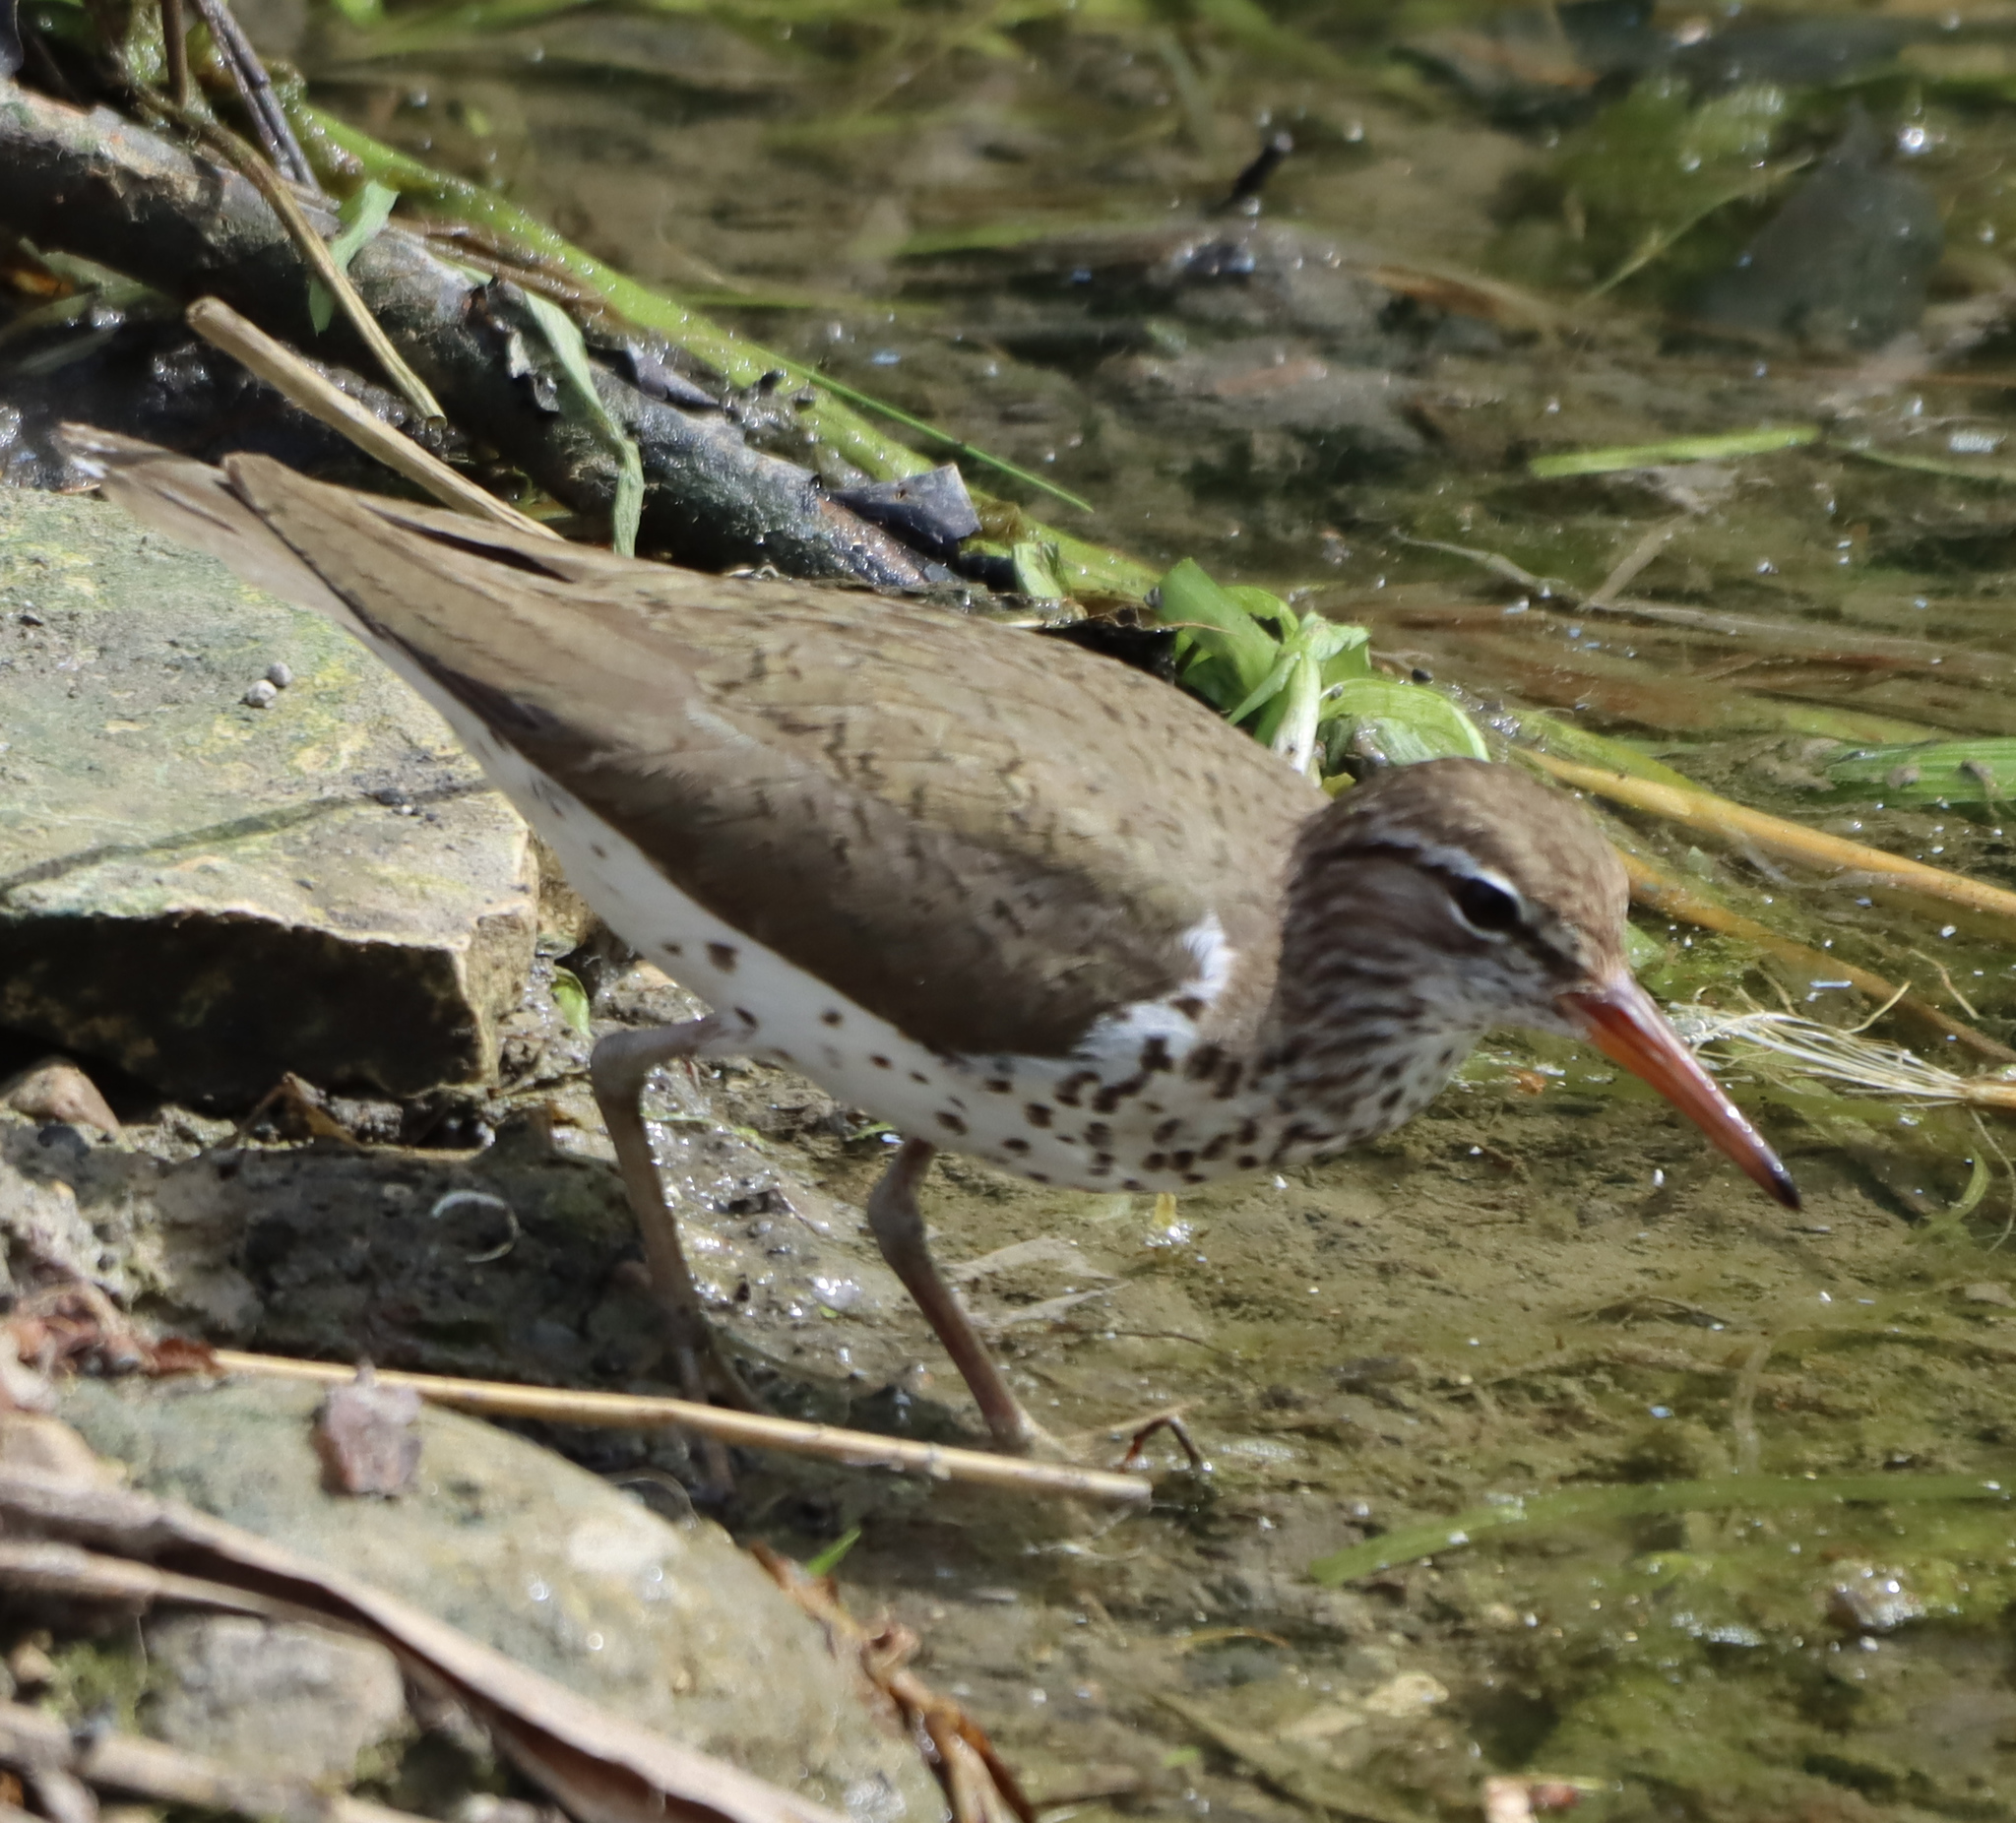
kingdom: Animalia
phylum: Chordata
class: Aves
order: Charadriiformes
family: Scolopacidae
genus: Actitis
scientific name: Actitis macularius
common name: Spotted sandpiper
